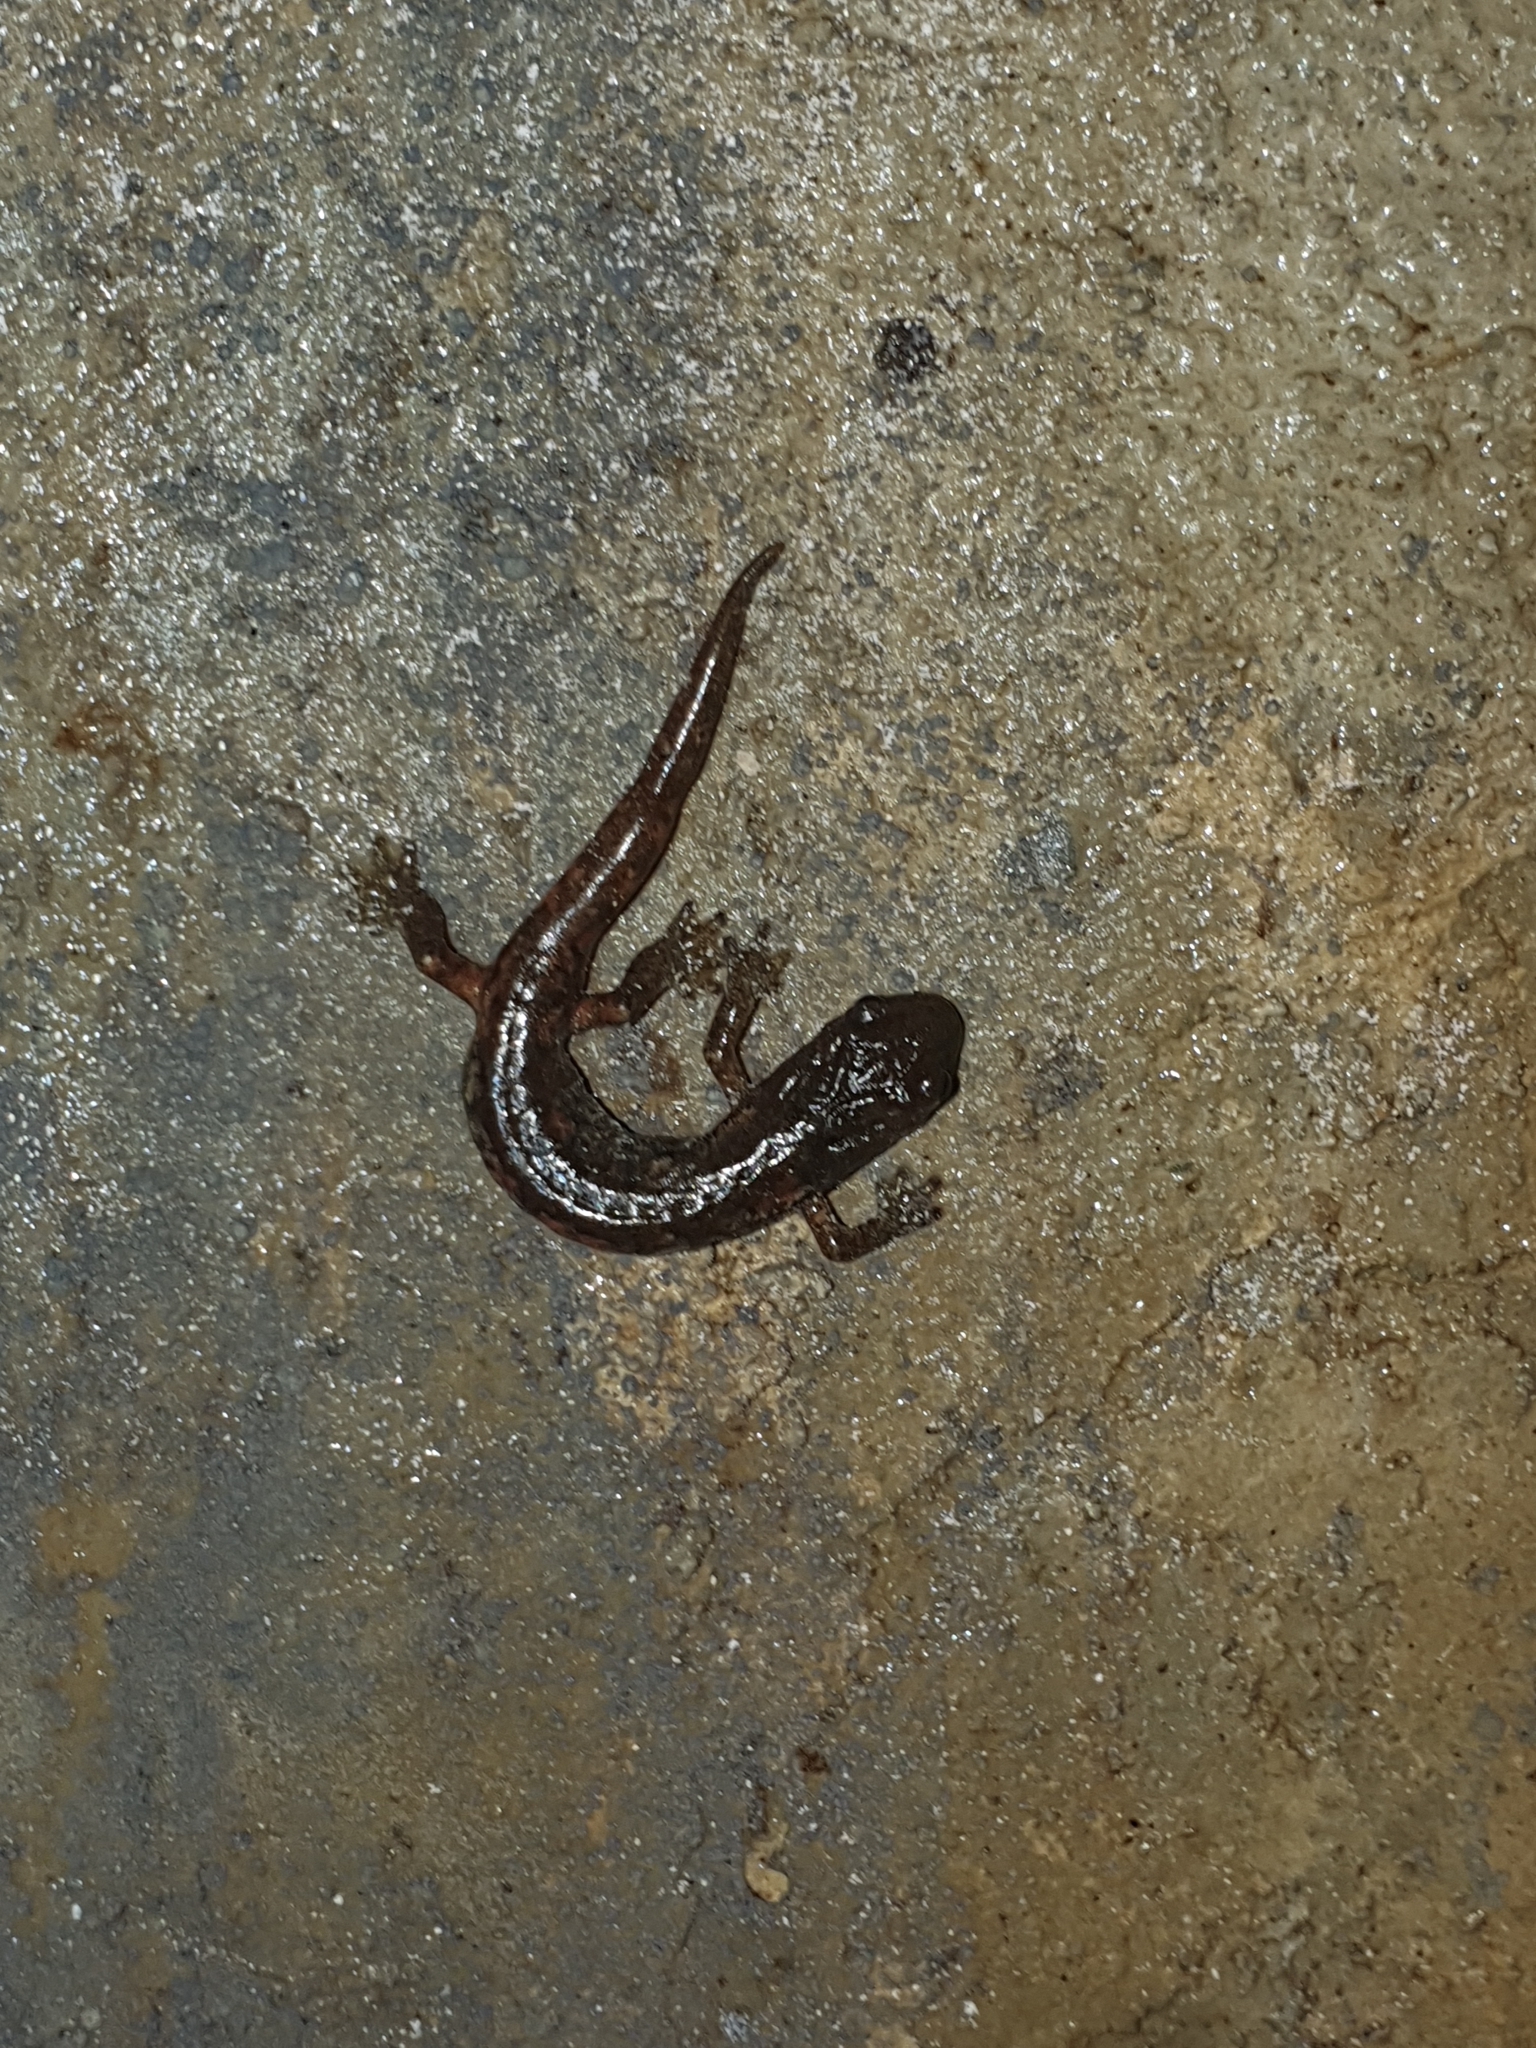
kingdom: Animalia
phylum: Chordata
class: Amphibia
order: Caudata
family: Plethodontidae
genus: Speleomantes
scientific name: Speleomantes ambrosii
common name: Ambrosi's cave salamander
